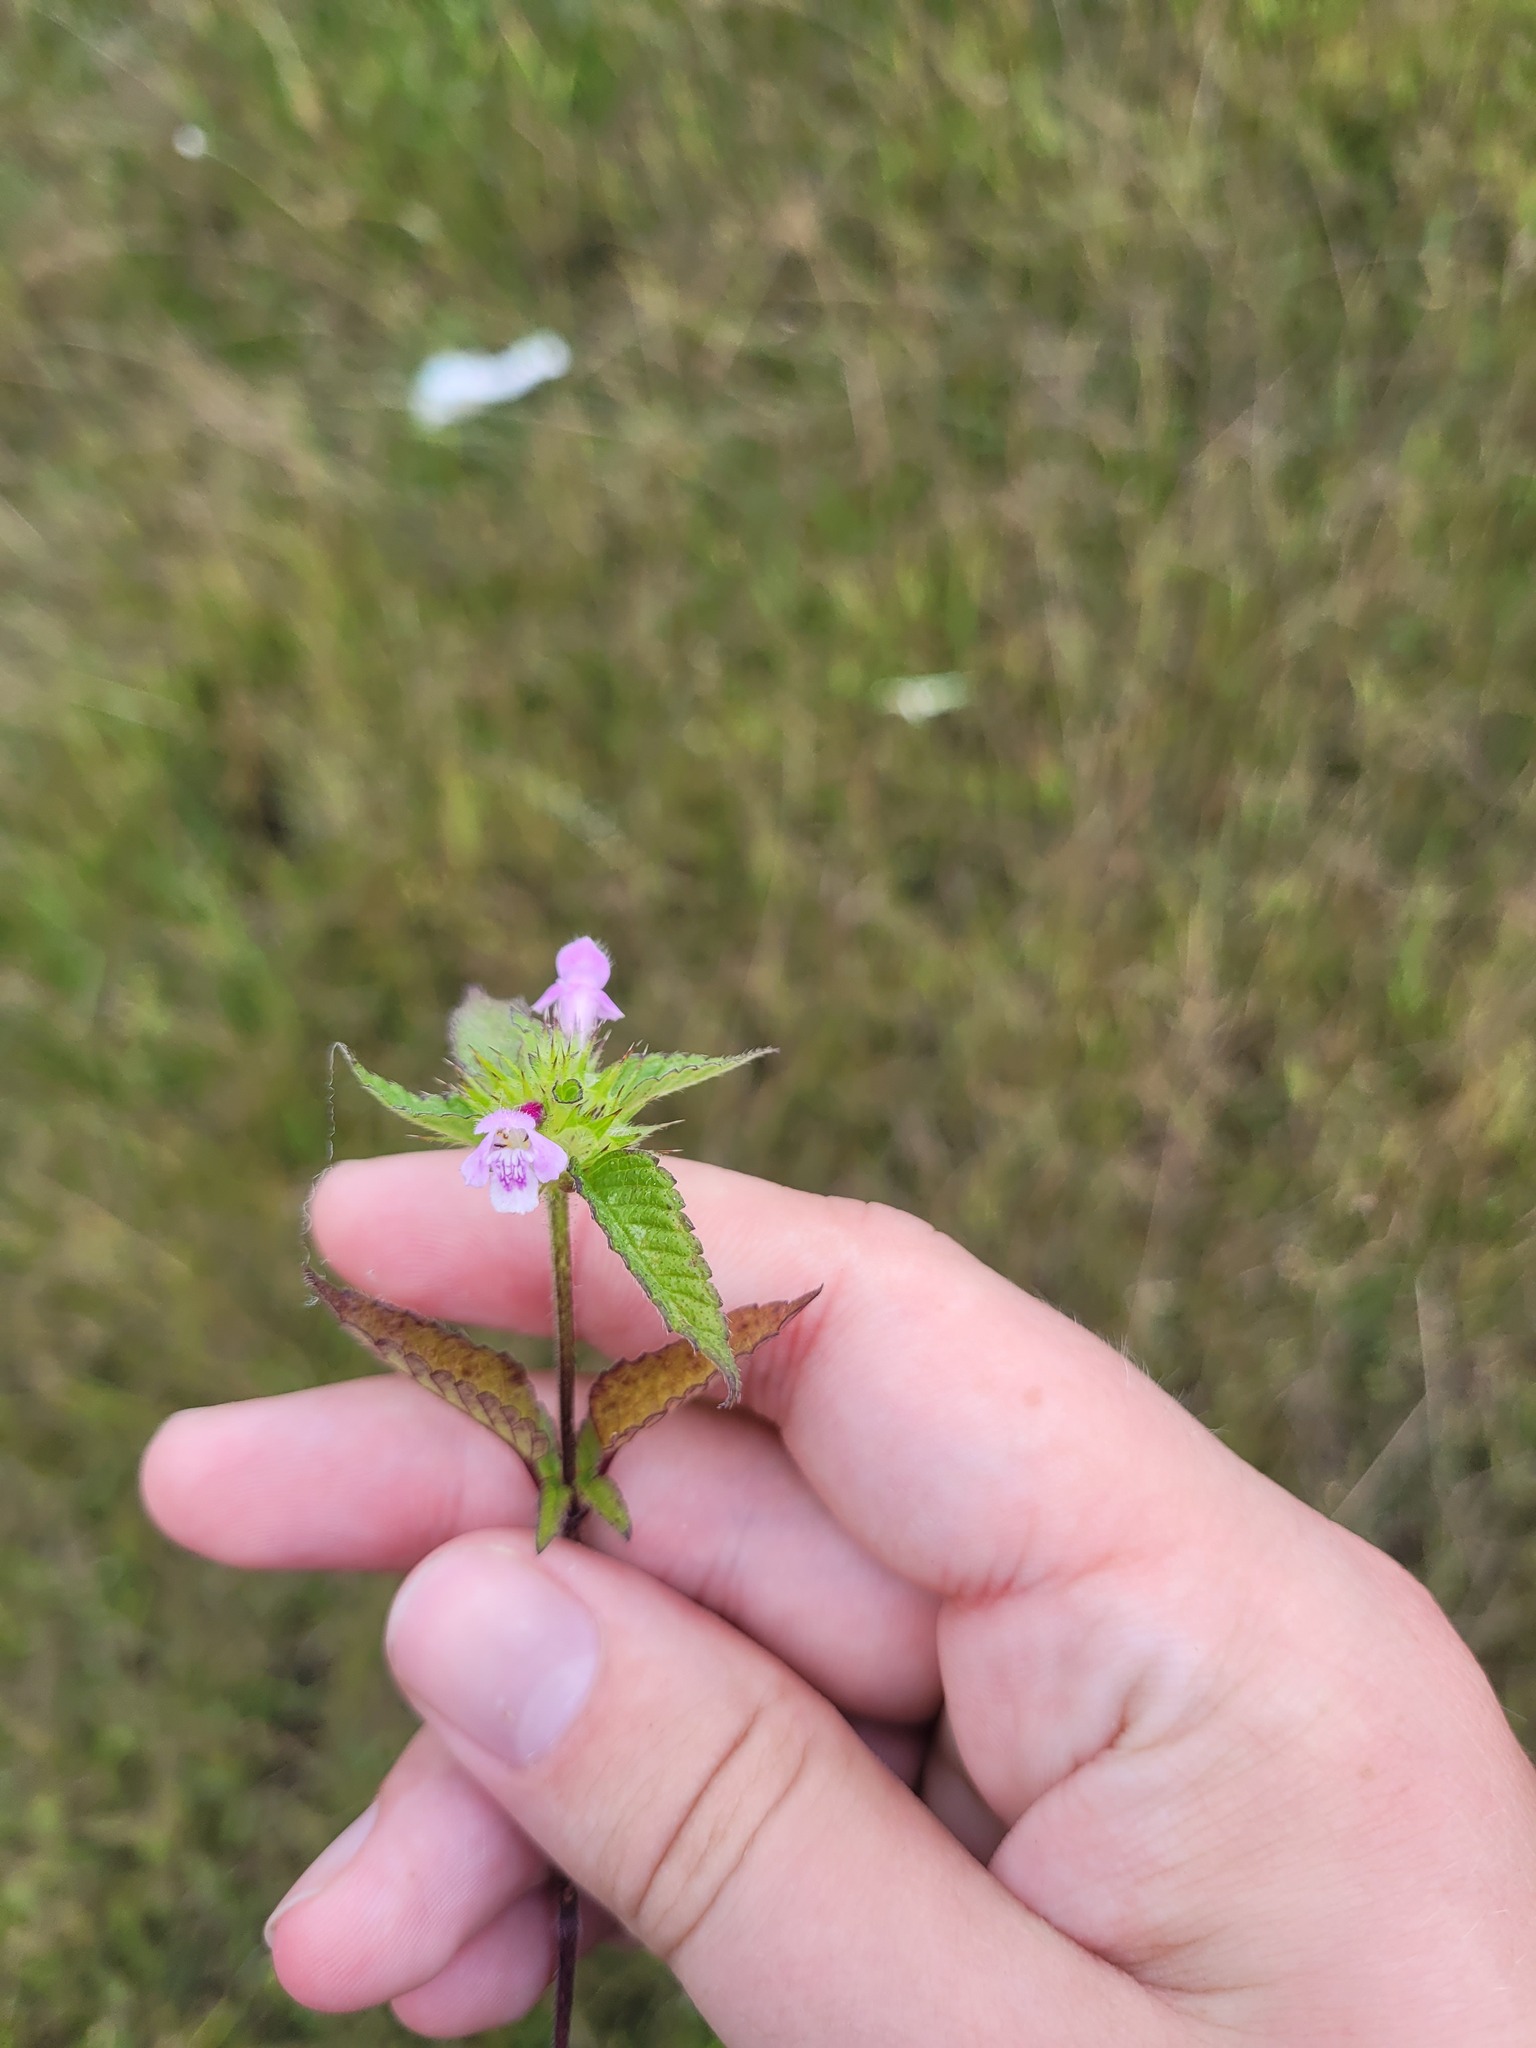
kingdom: Plantae
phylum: Tracheophyta
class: Magnoliopsida
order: Lamiales
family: Lamiaceae
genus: Galeopsis
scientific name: Galeopsis tetrahit
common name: Common hemp-nettle
